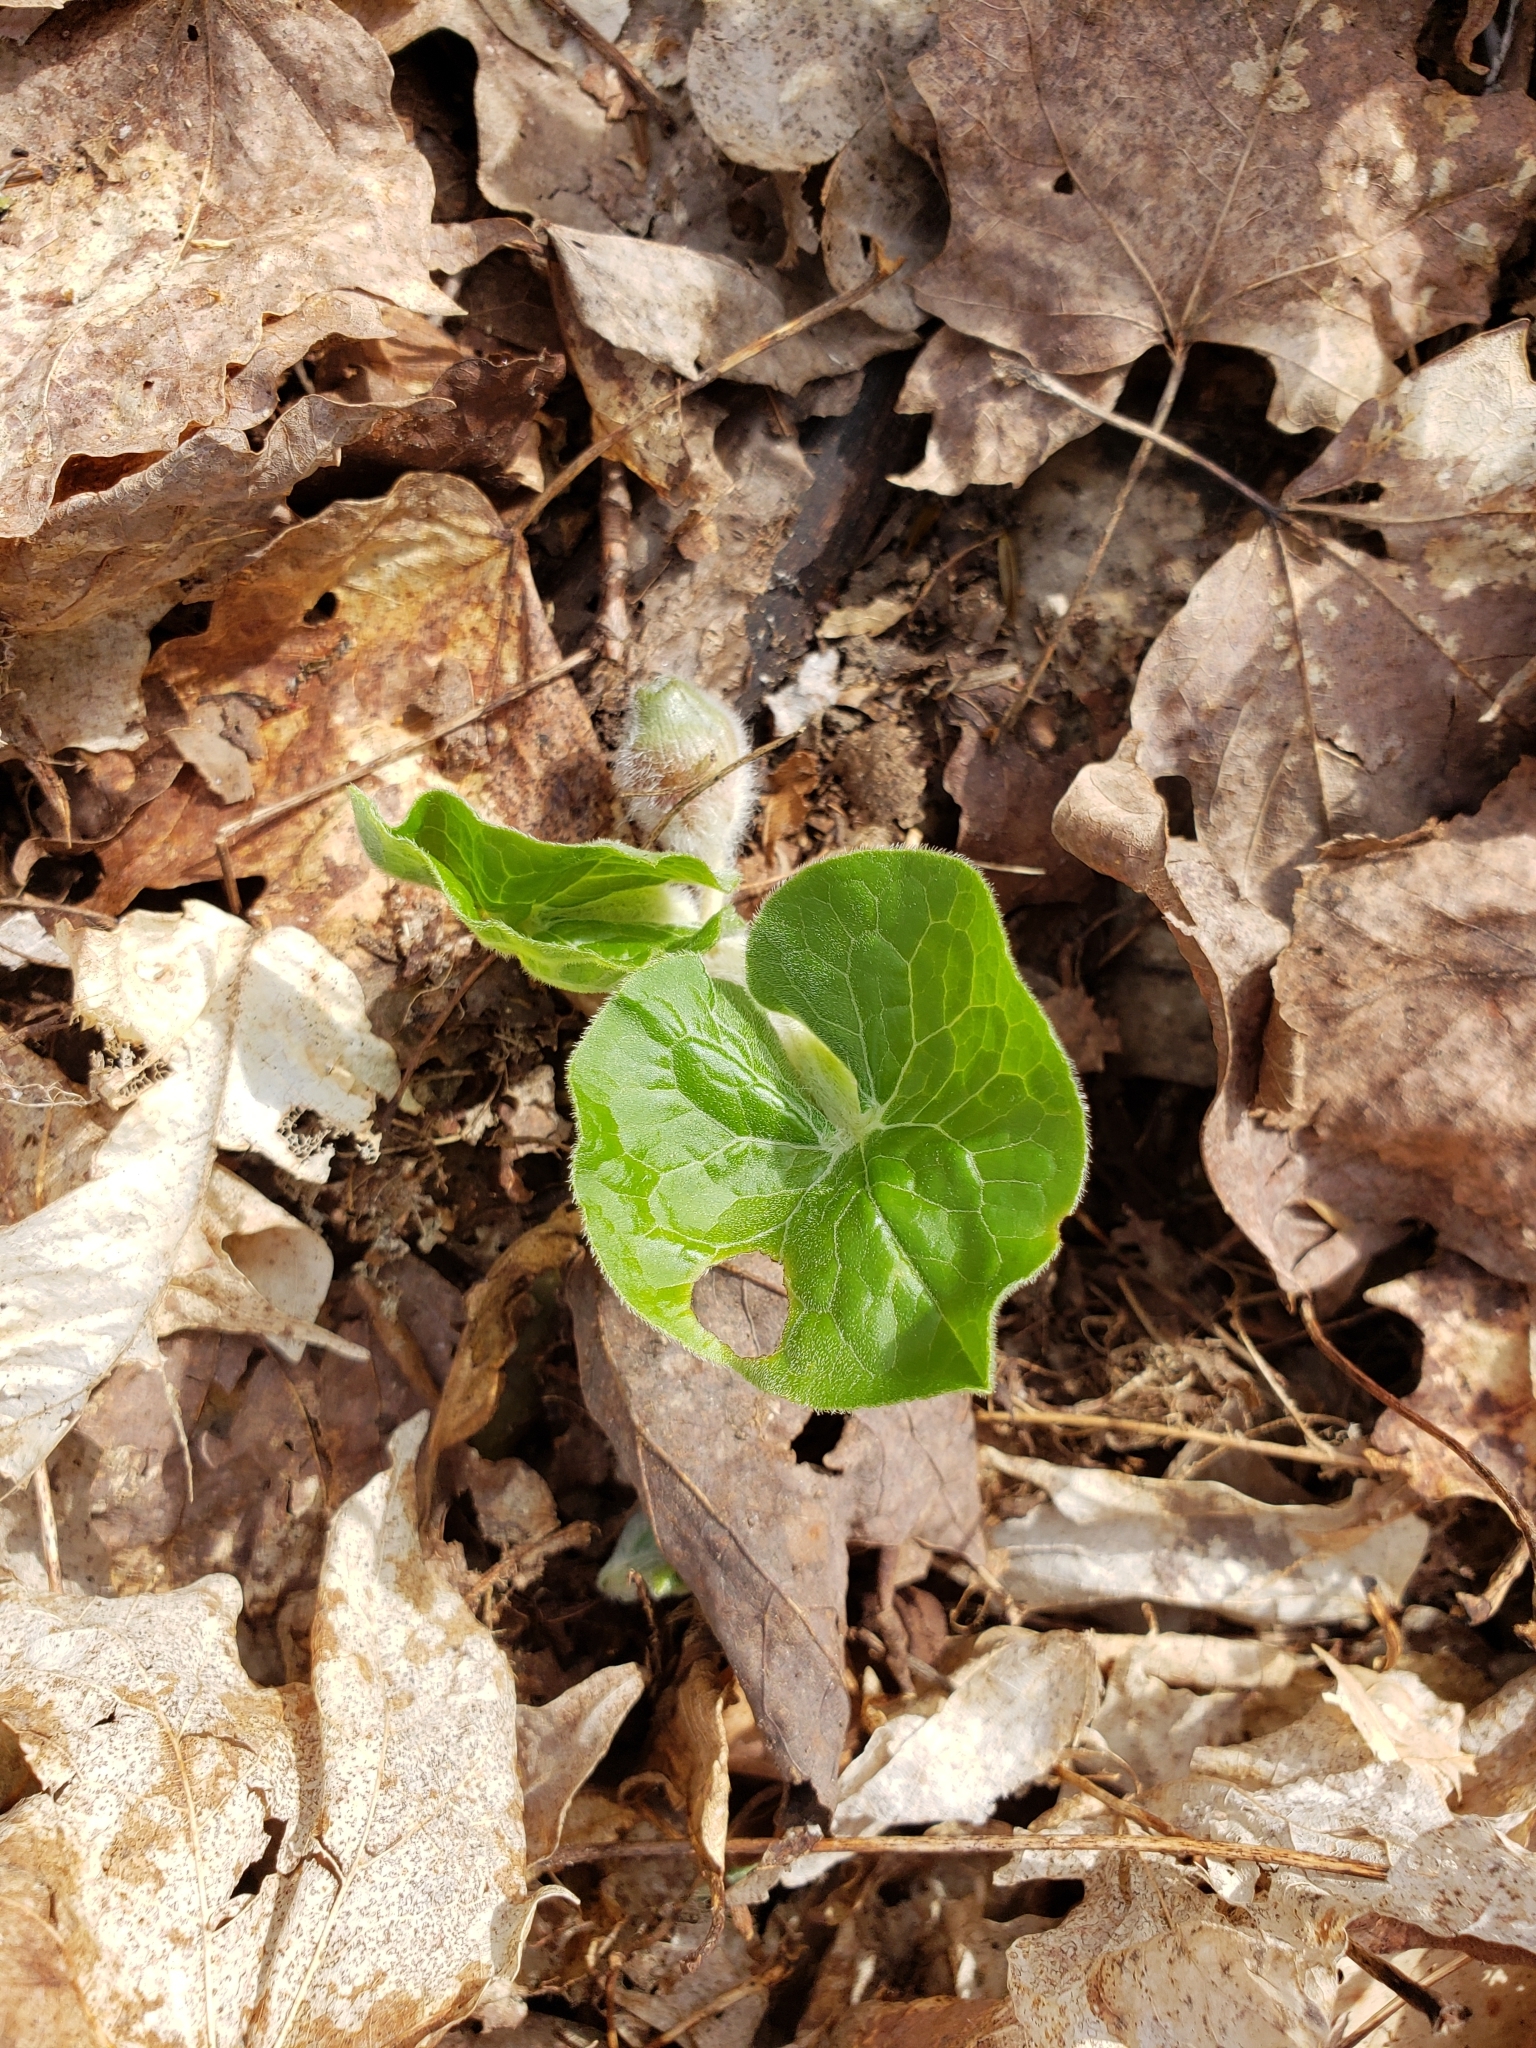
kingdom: Plantae
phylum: Tracheophyta
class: Magnoliopsida
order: Piperales
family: Aristolochiaceae
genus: Asarum
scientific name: Asarum canadense
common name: Wild ginger
